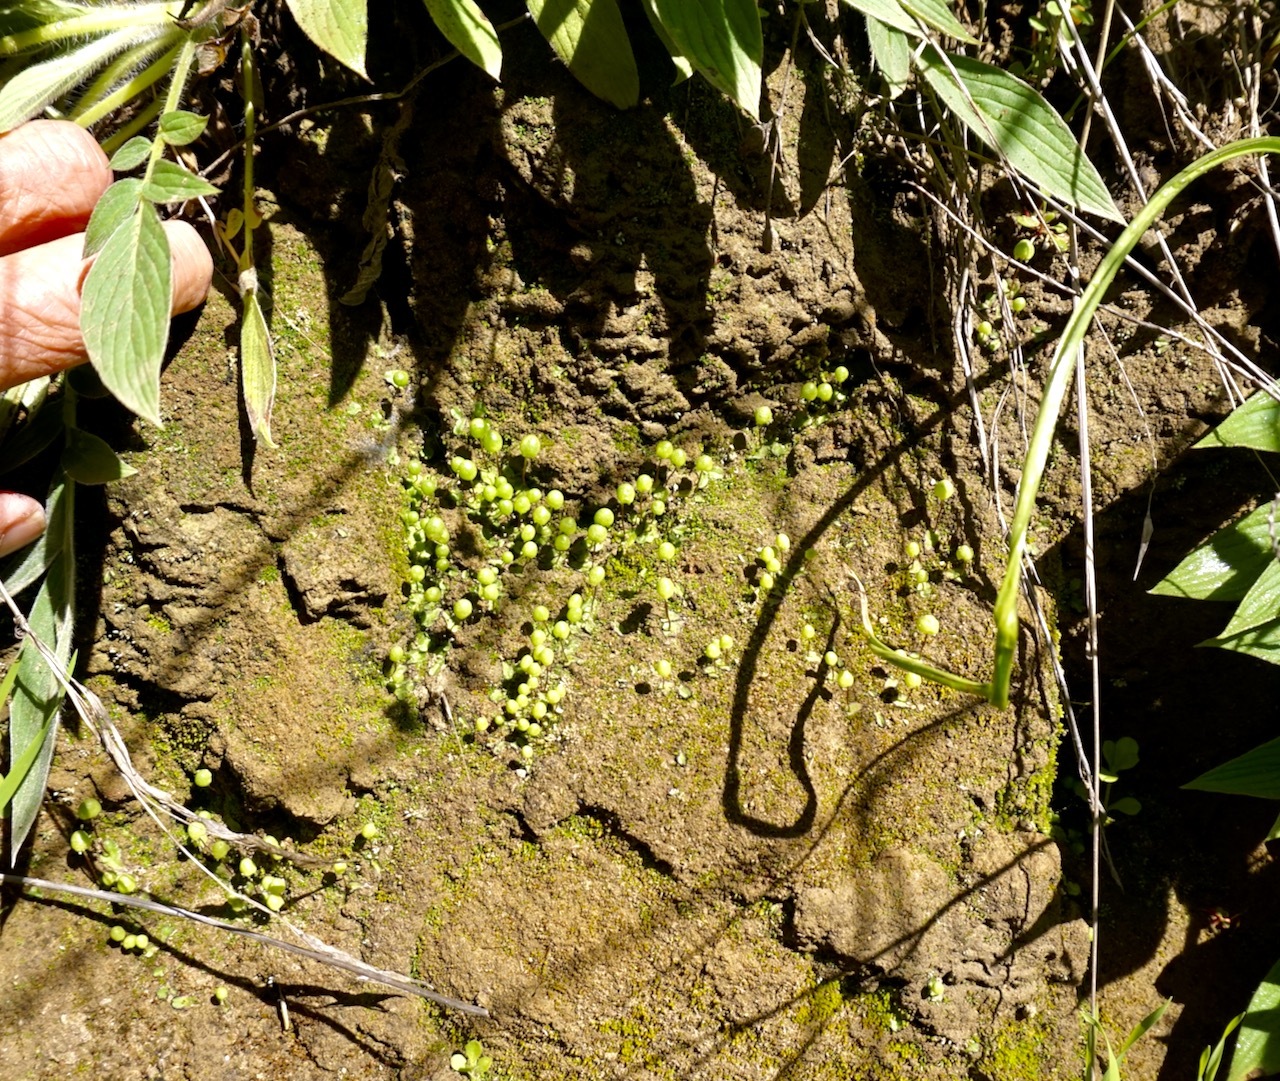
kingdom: Plantae
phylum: Marchantiophyta
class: Marchantiopsida
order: Marchantiales
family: Aytoniaceae
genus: Asterella
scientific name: Asterella palmeri
